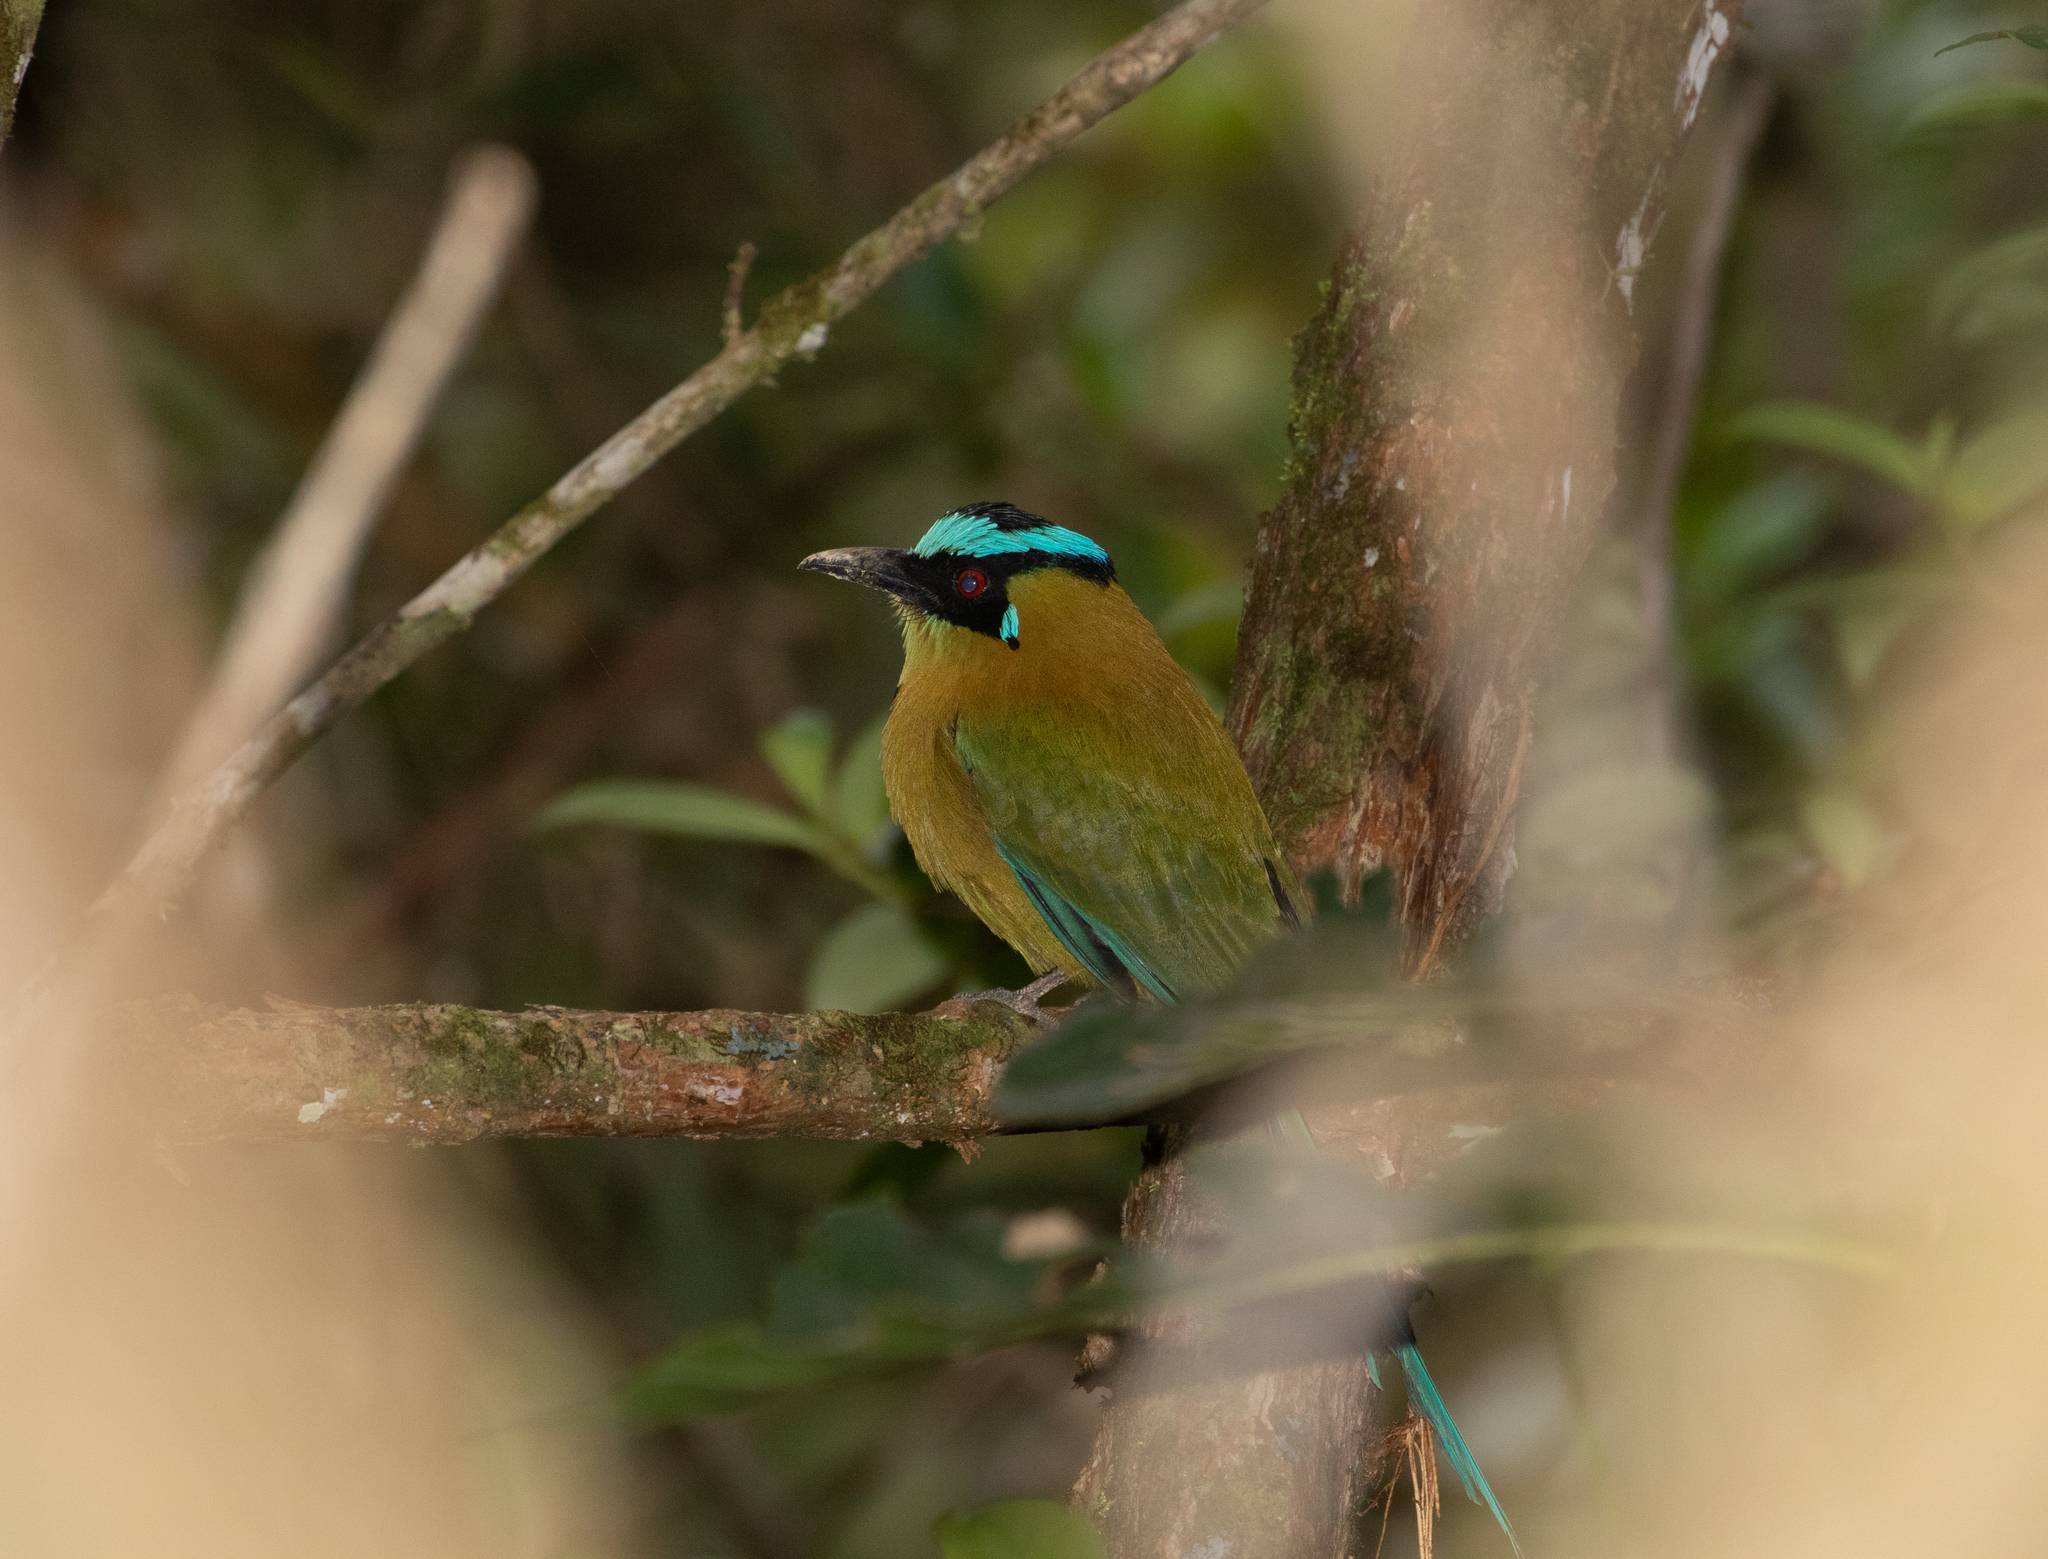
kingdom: Animalia
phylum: Chordata
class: Aves
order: Coraciiformes
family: Momotidae
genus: Momotus
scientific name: Momotus aequatorialis
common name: Andean motmot
